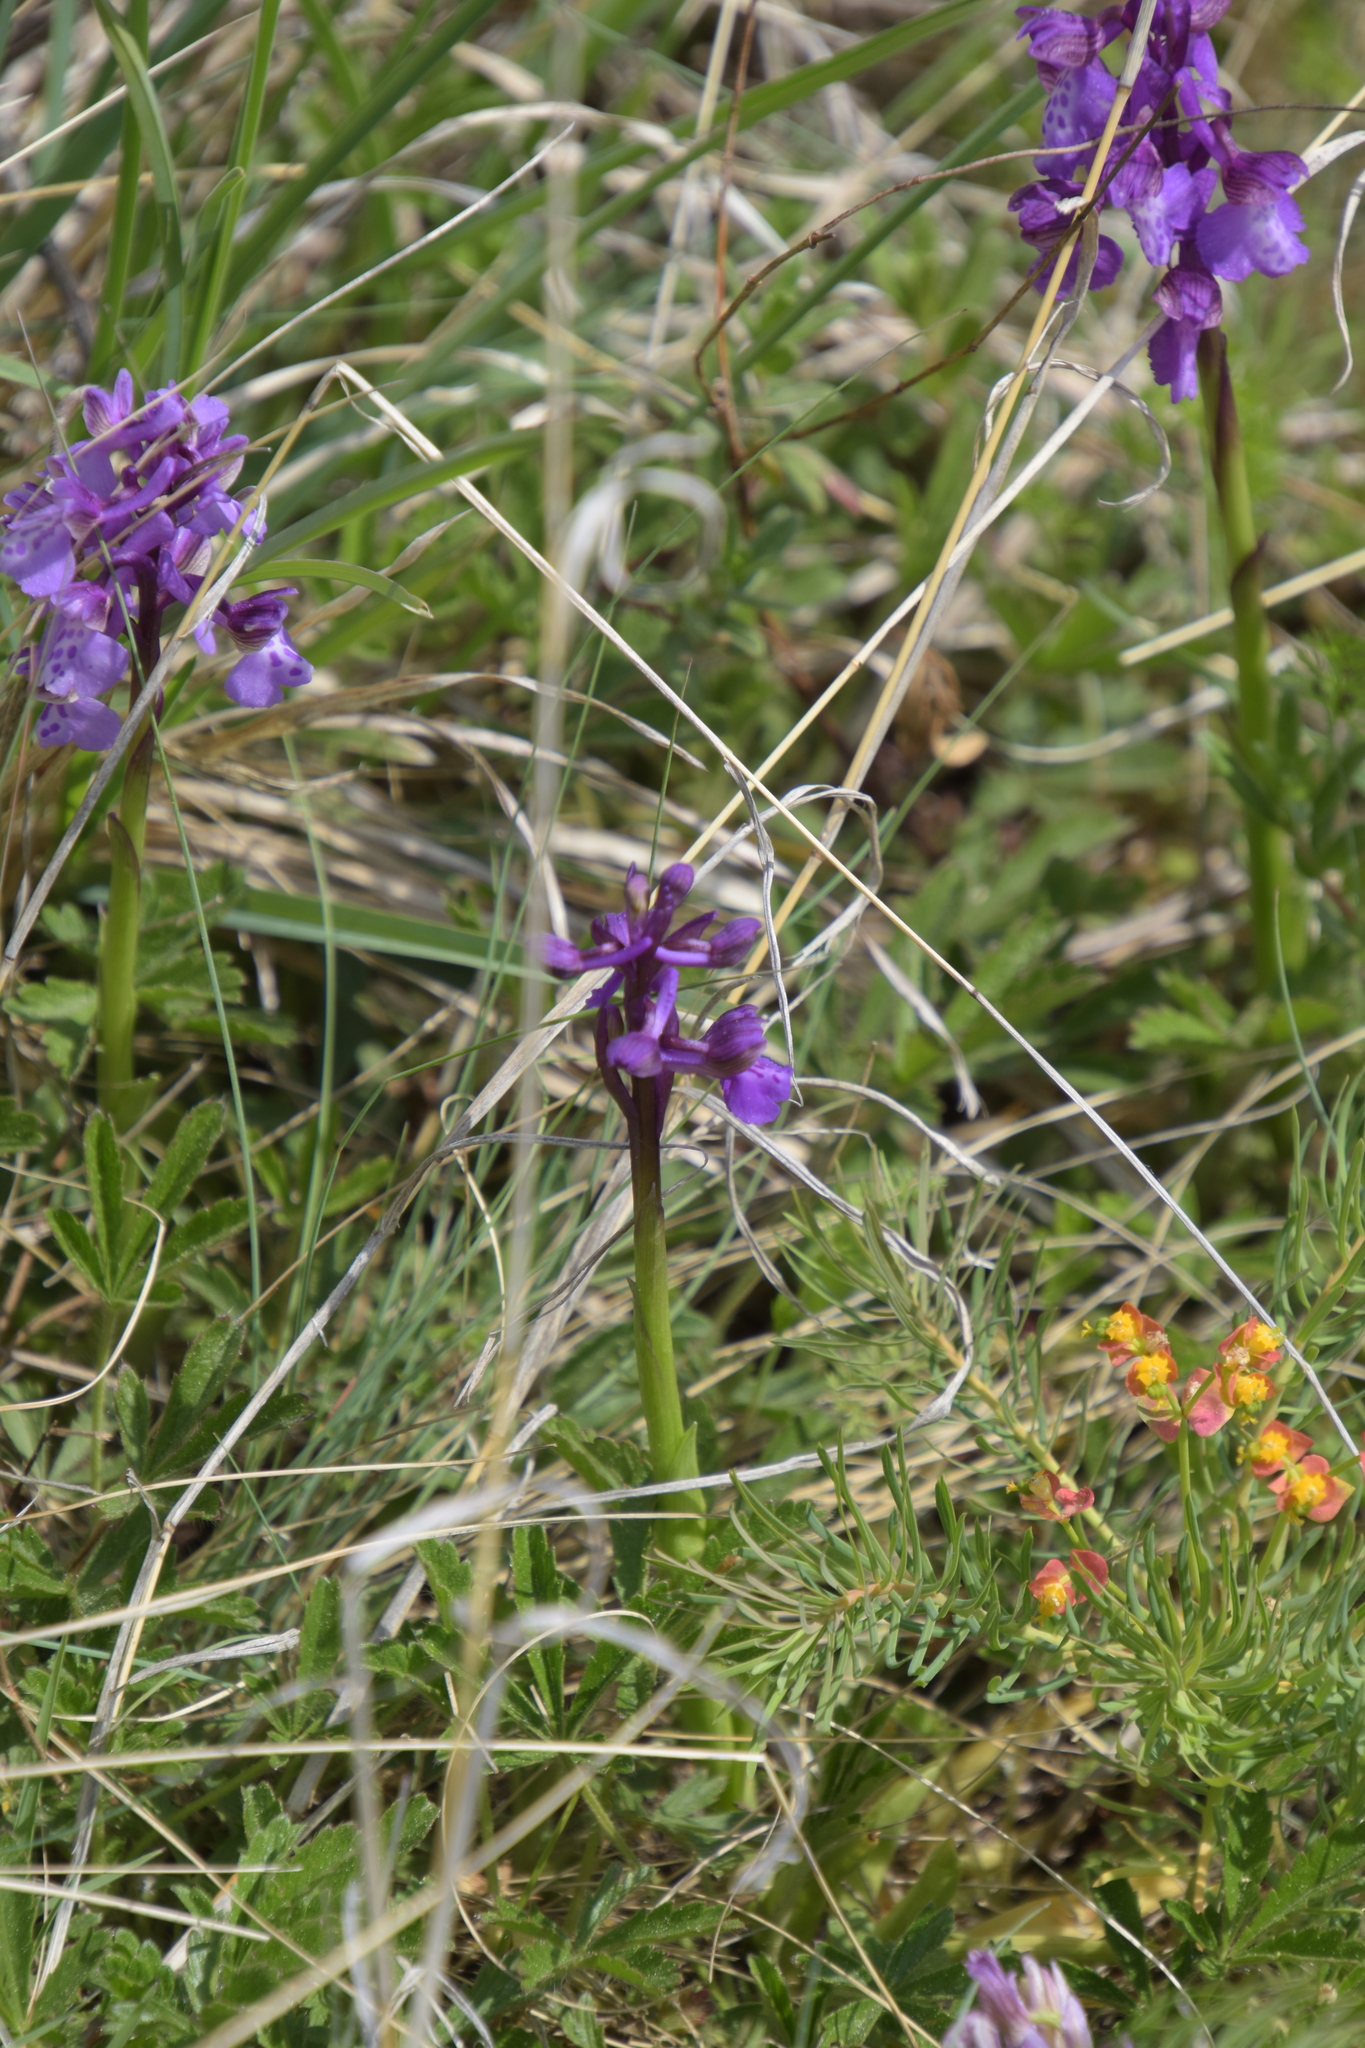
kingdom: Plantae
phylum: Tracheophyta
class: Liliopsida
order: Asparagales
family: Orchidaceae
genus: Anacamptis
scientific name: Anacamptis morio
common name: Green-winged orchid
